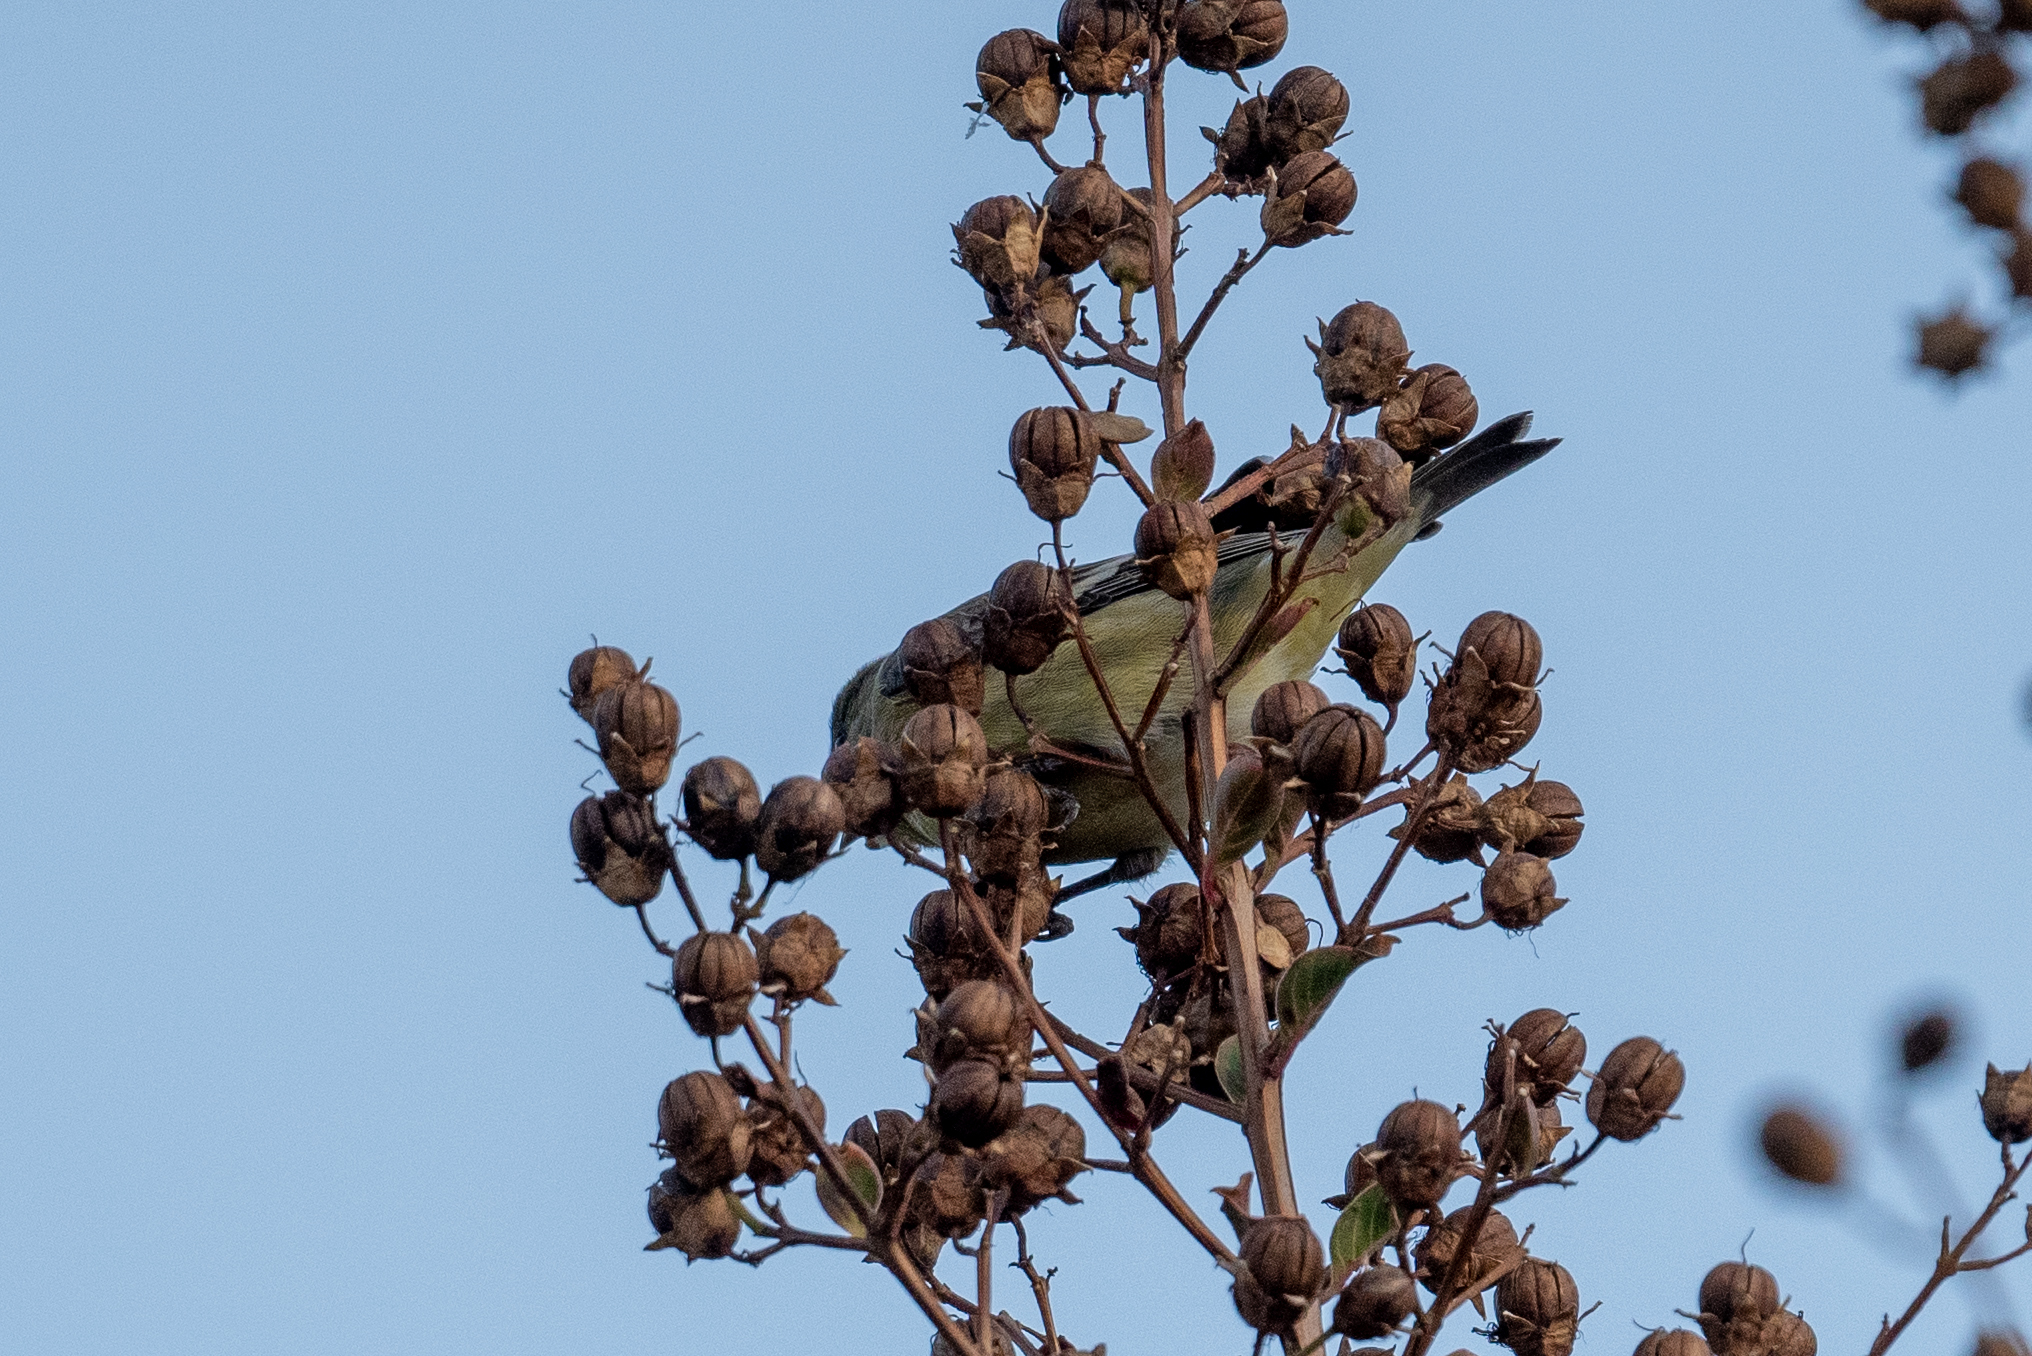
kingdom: Animalia
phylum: Chordata
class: Aves
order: Passeriformes
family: Fringillidae
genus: Spinus
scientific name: Spinus tristis
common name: American goldfinch
